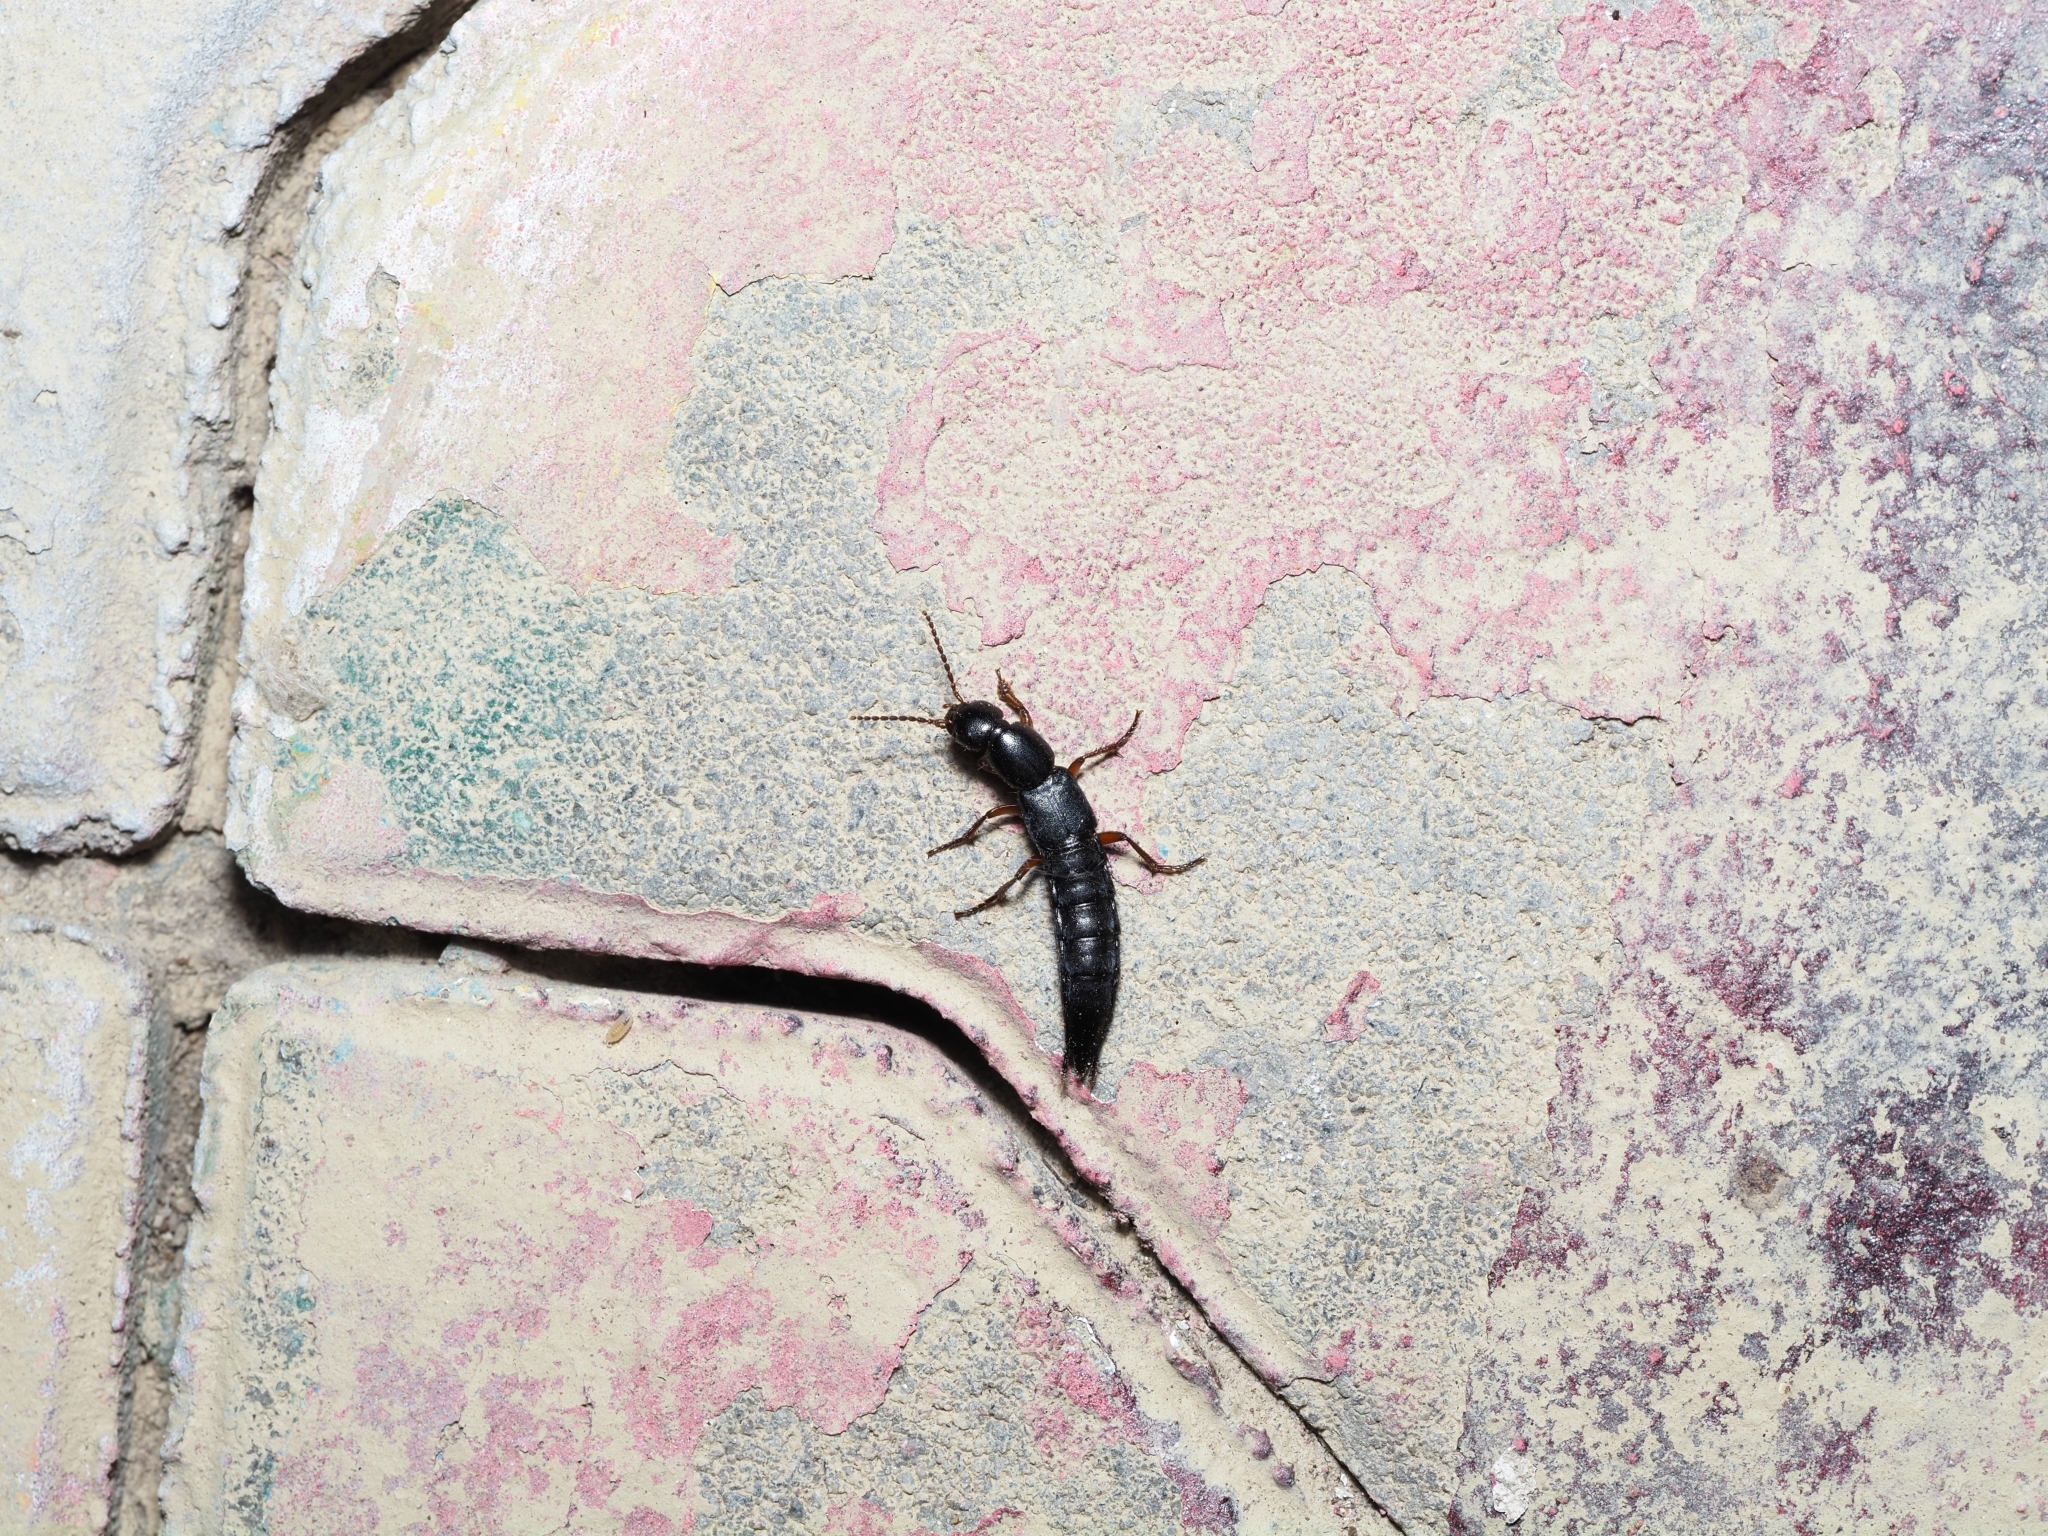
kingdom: Animalia
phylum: Arthropoda
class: Insecta
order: Coleoptera
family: Staphylinidae
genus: Tasgius
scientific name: Tasgius pedator
